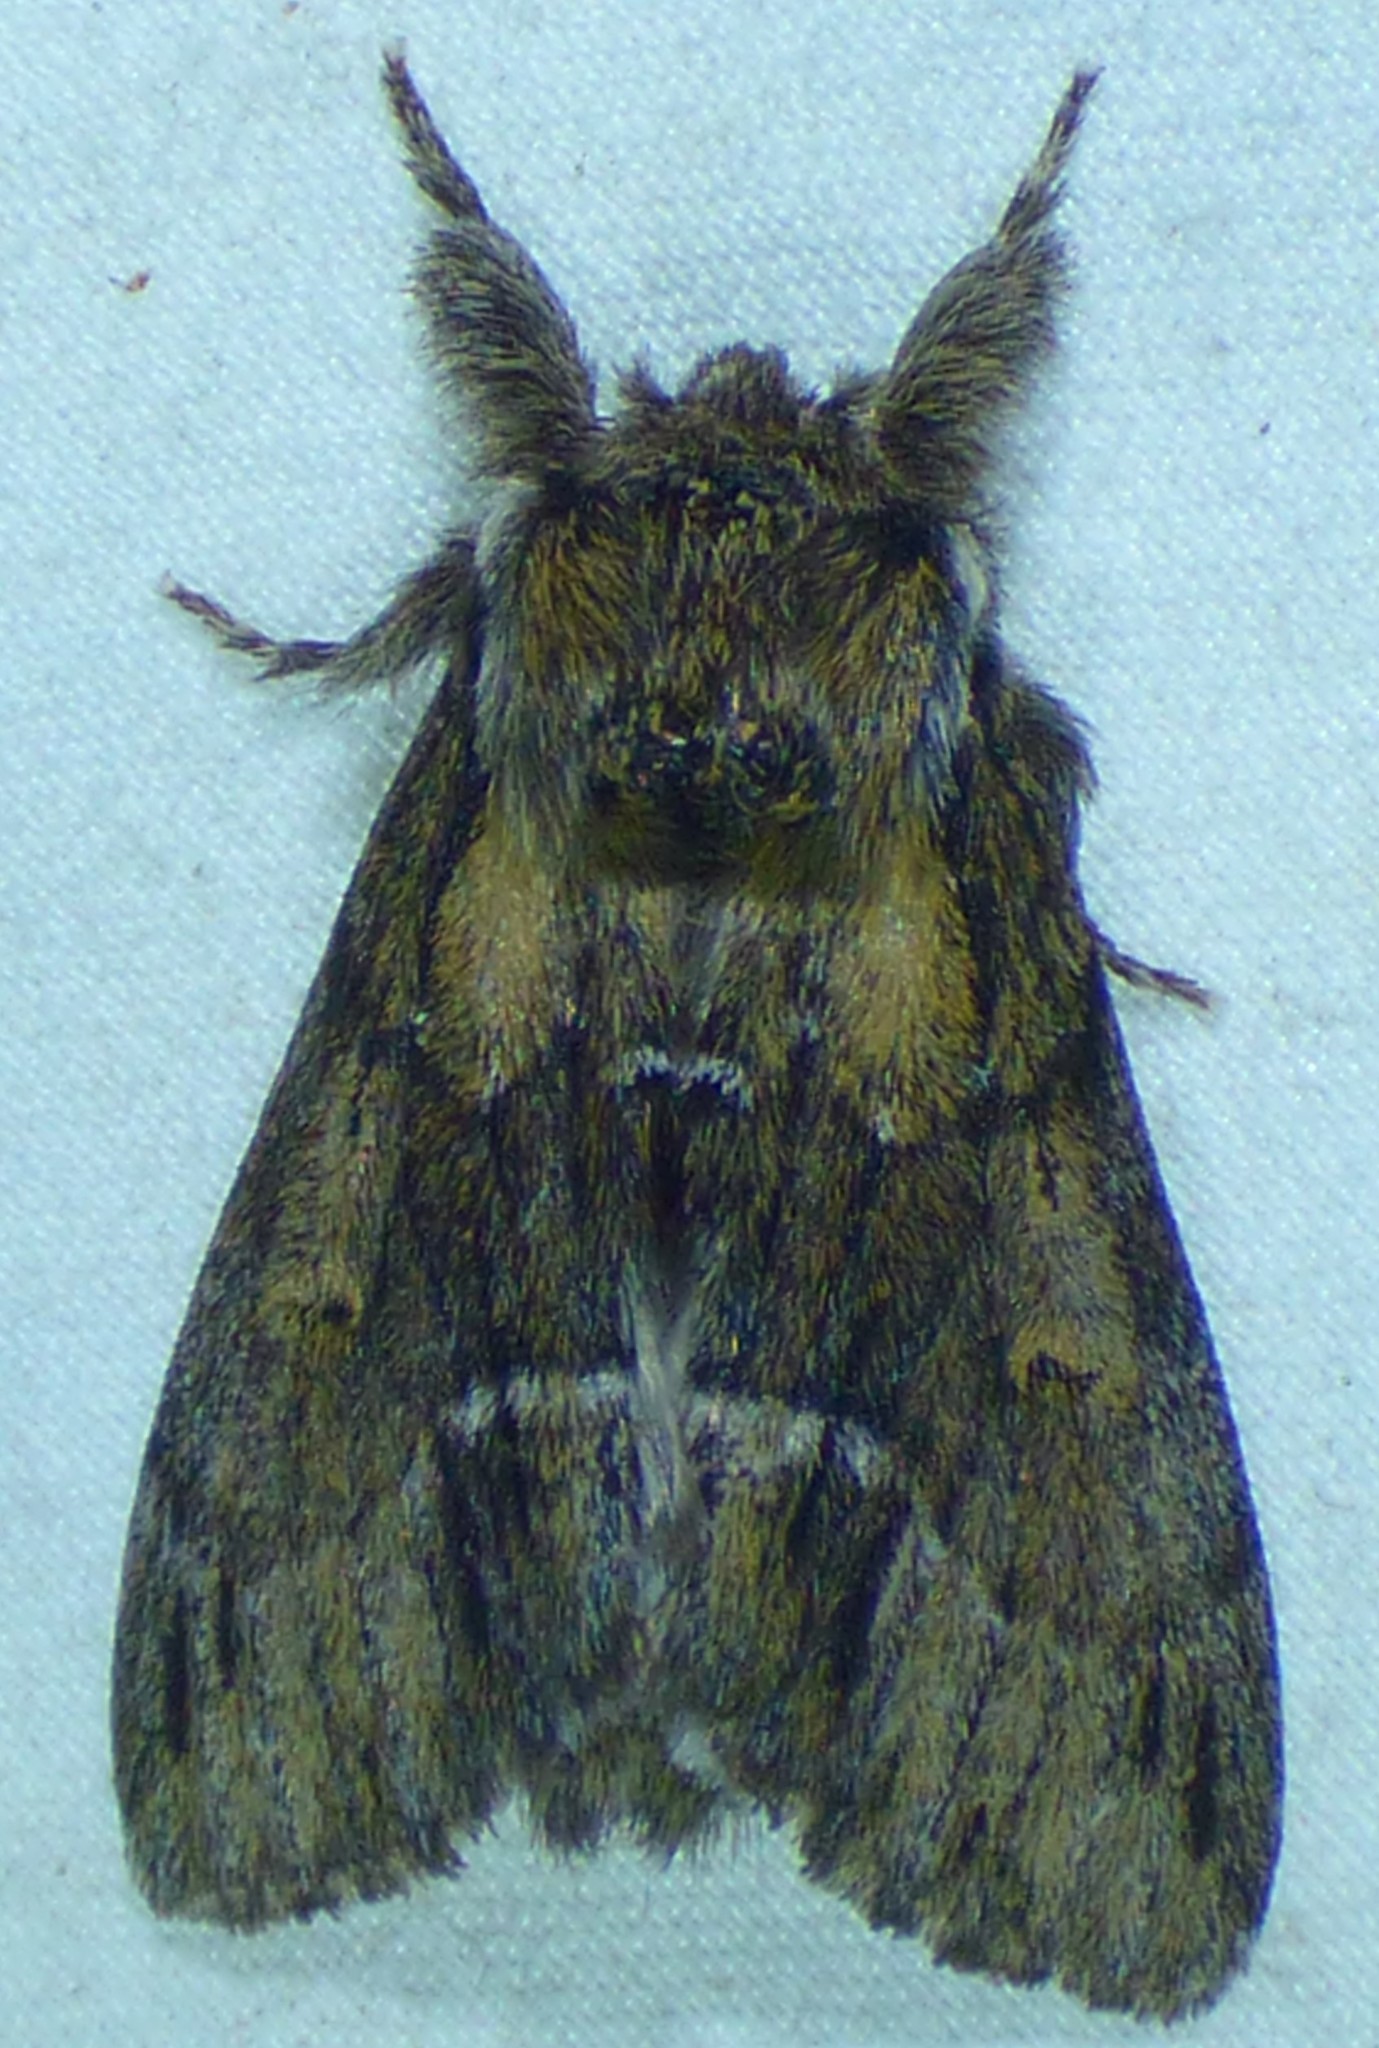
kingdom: Animalia
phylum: Arthropoda
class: Insecta
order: Lepidoptera
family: Notodontidae
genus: Paraeschra
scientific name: Paraeschra georgica
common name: Georgian prominent
